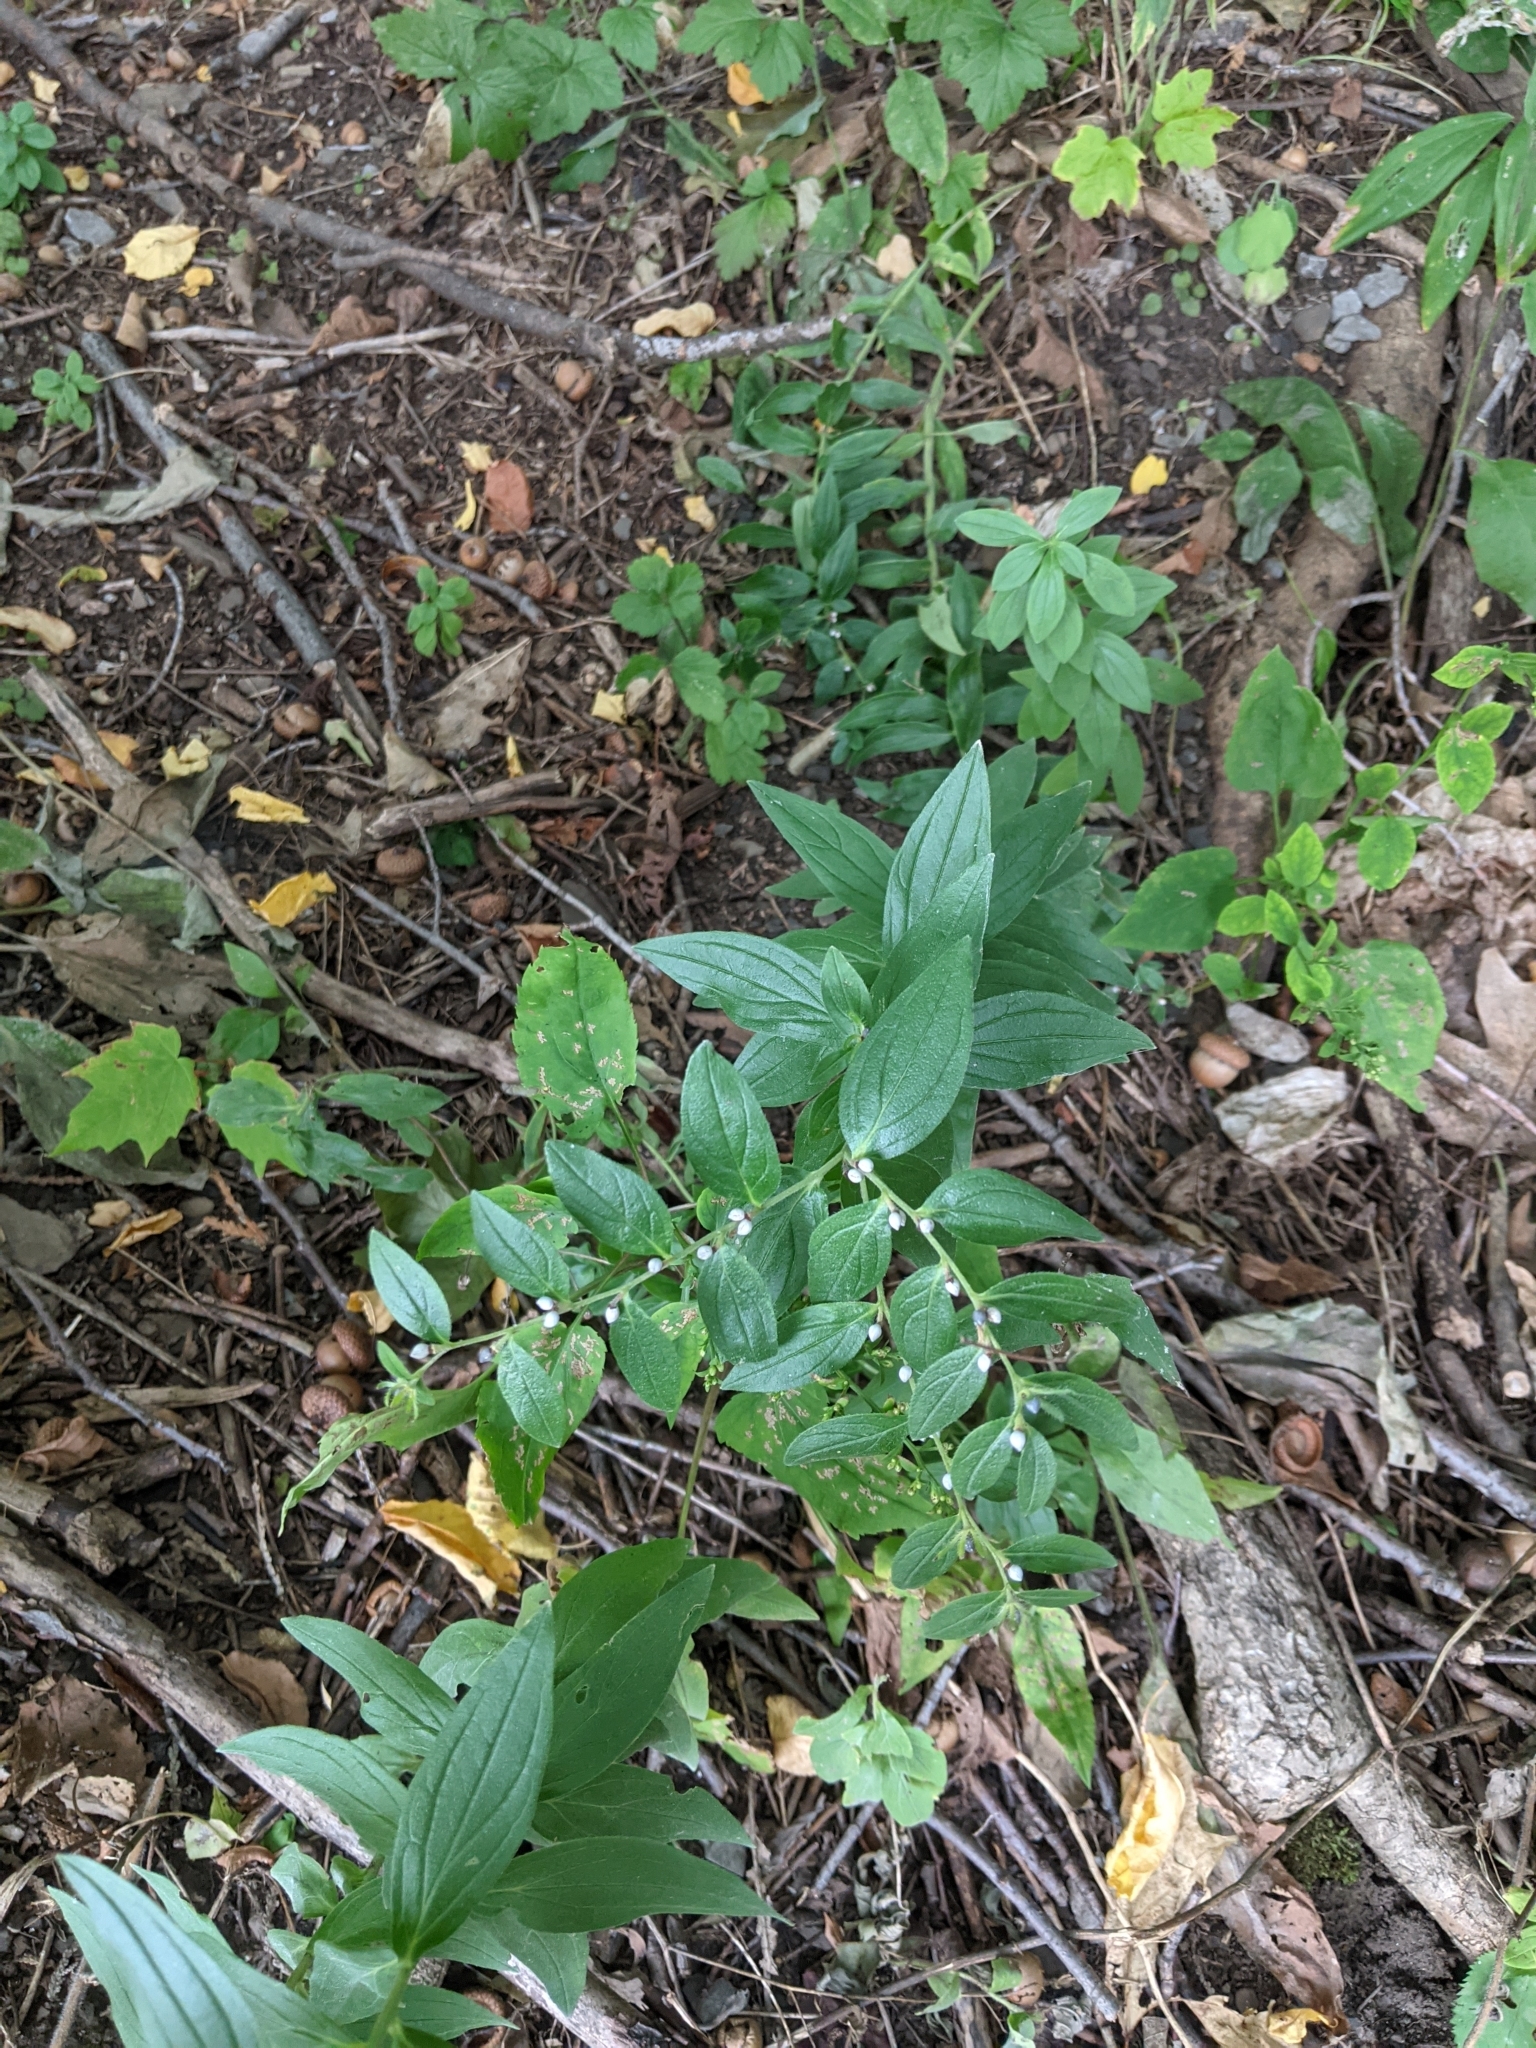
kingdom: Plantae
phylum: Tracheophyta
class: Magnoliopsida
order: Boraginales
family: Boraginaceae
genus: Lithospermum
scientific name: Lithospermum officinale
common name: Common gromwell
